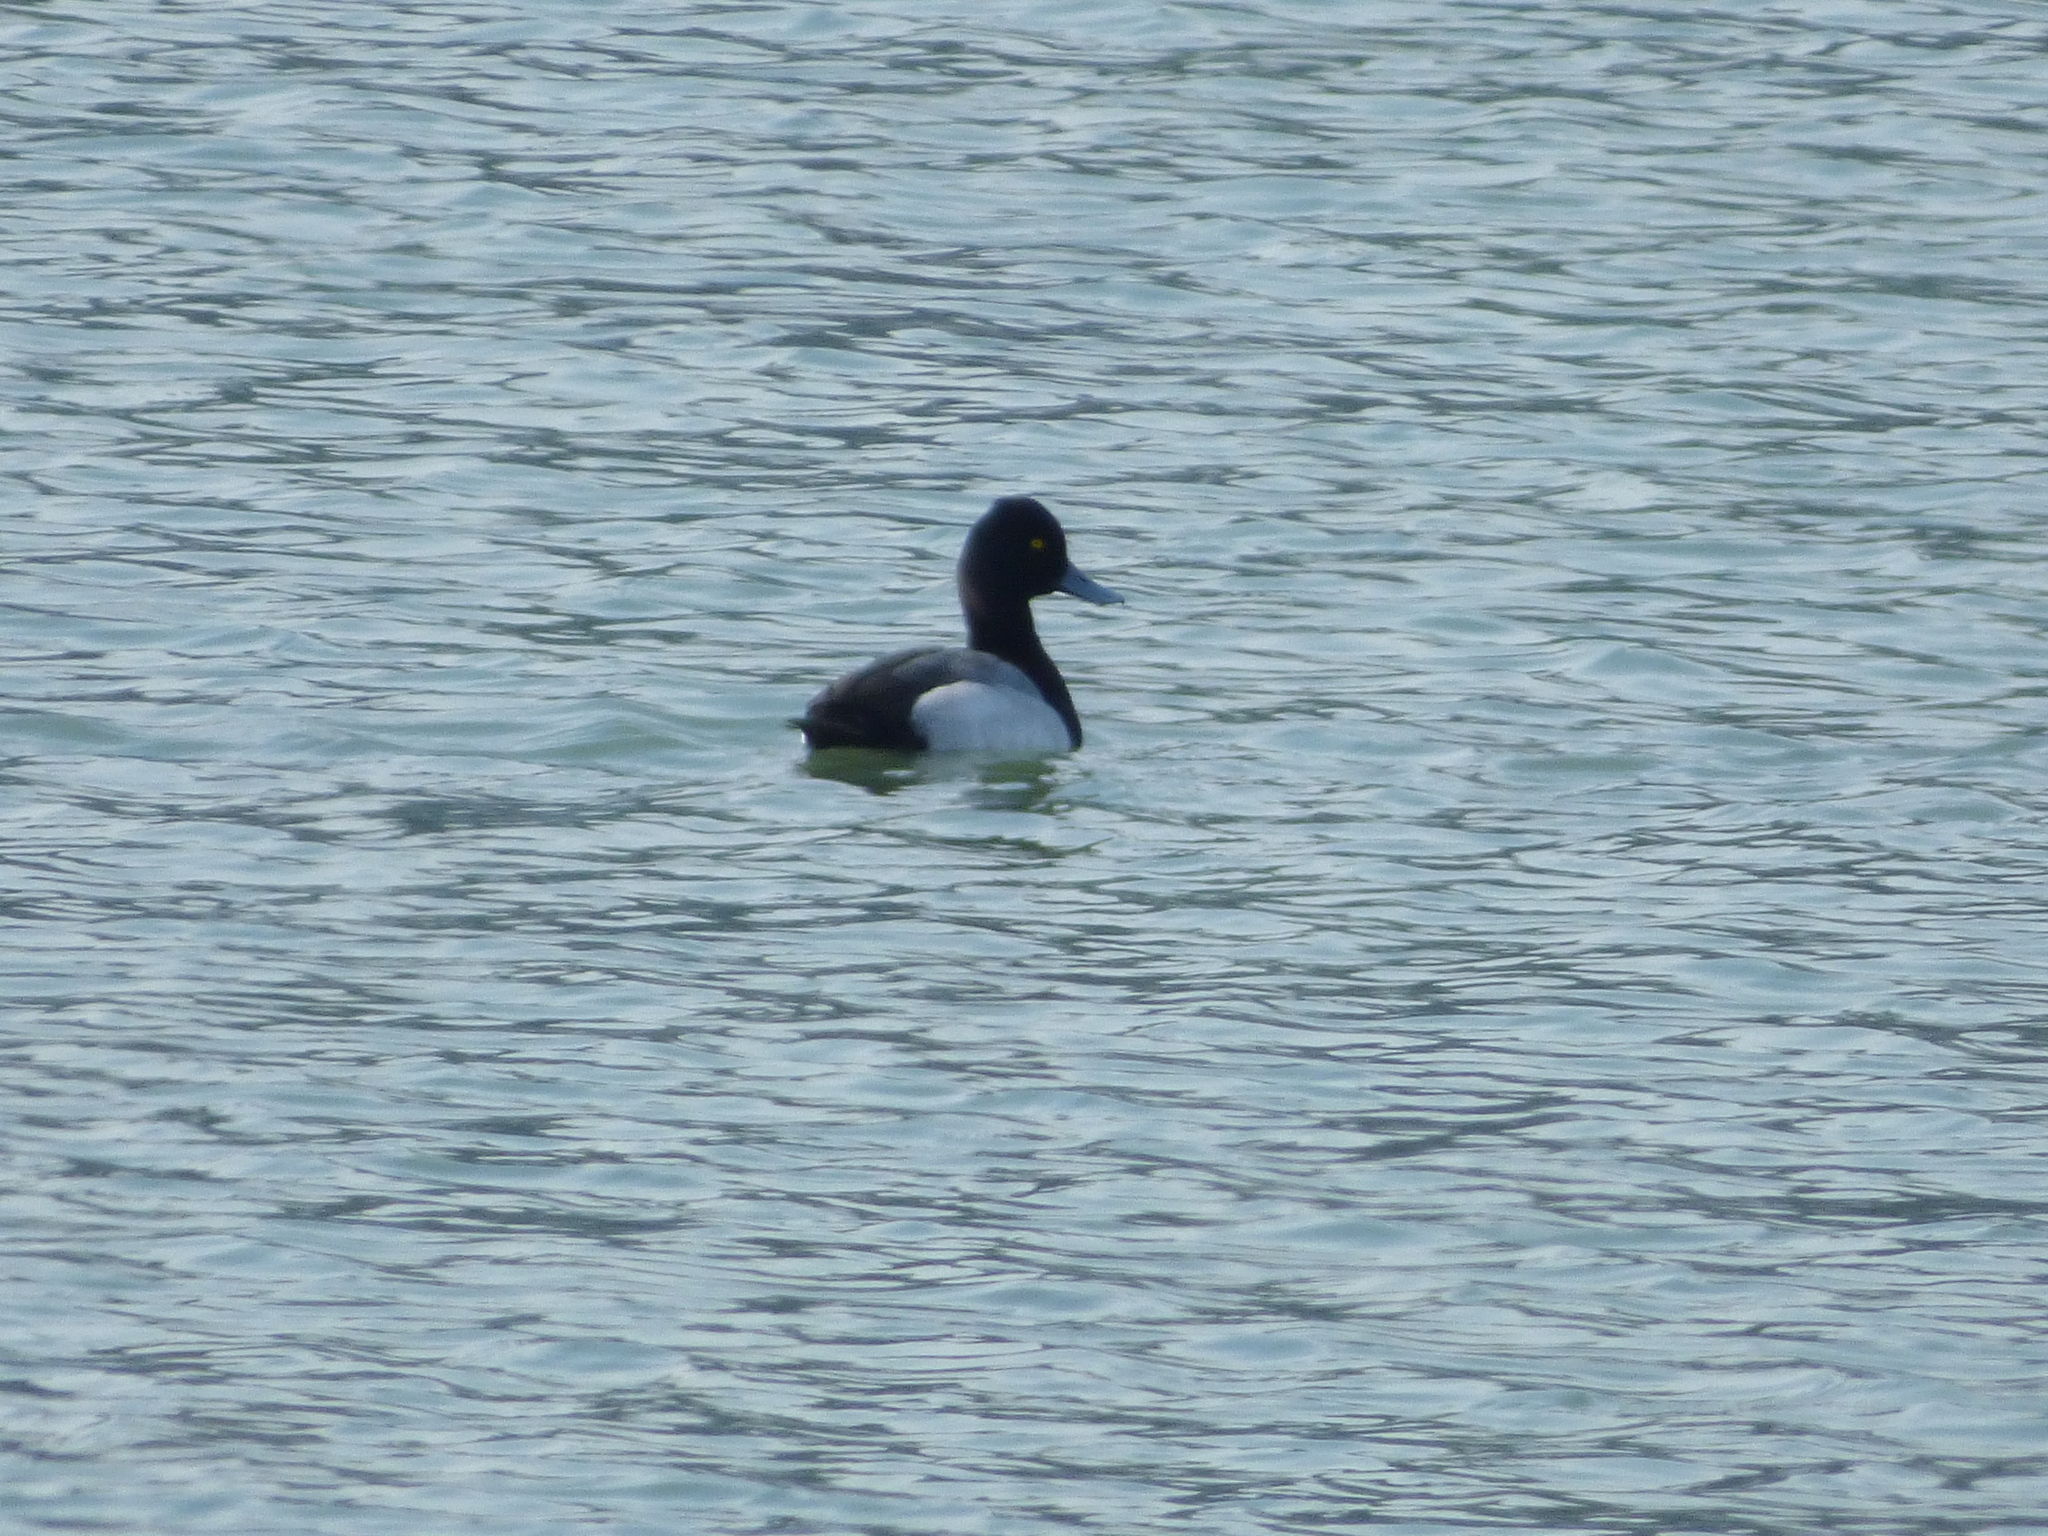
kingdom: Animalia
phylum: Chordata
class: Aves
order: Anseriformes
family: Anatidae
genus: Aythya
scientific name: Aythya affinis
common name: Lesser scaup
